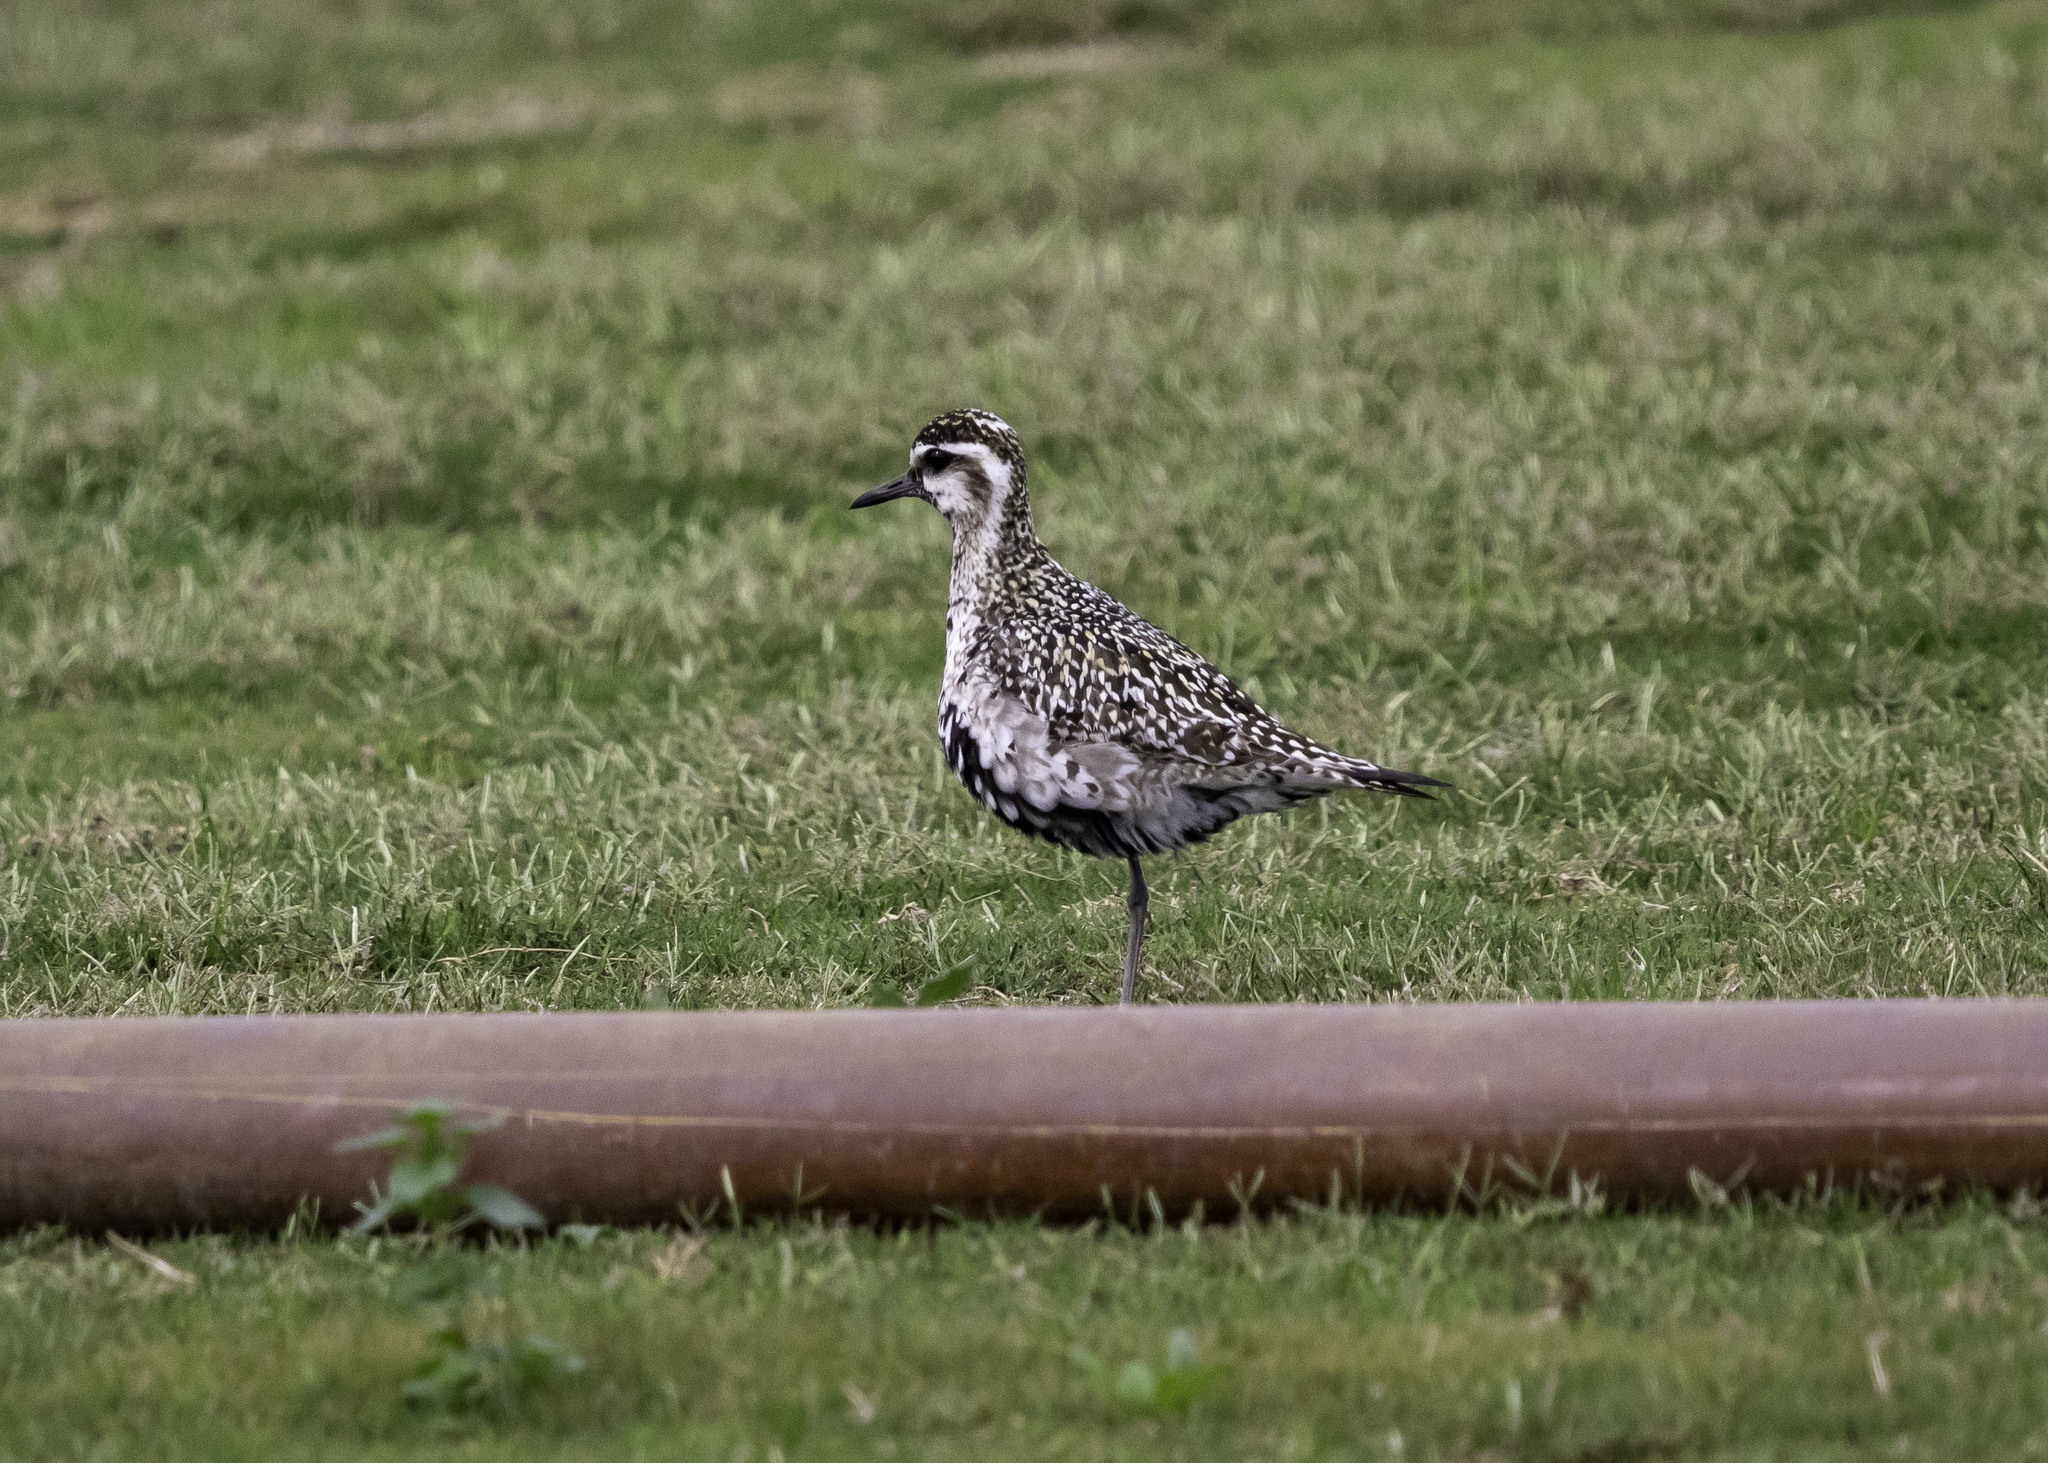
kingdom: Animalia
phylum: Chordata
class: Aves
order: Charadriiformes
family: Charadriidae
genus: Pluvialis
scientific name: Pluvialis fulva
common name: Pacific golden plover
